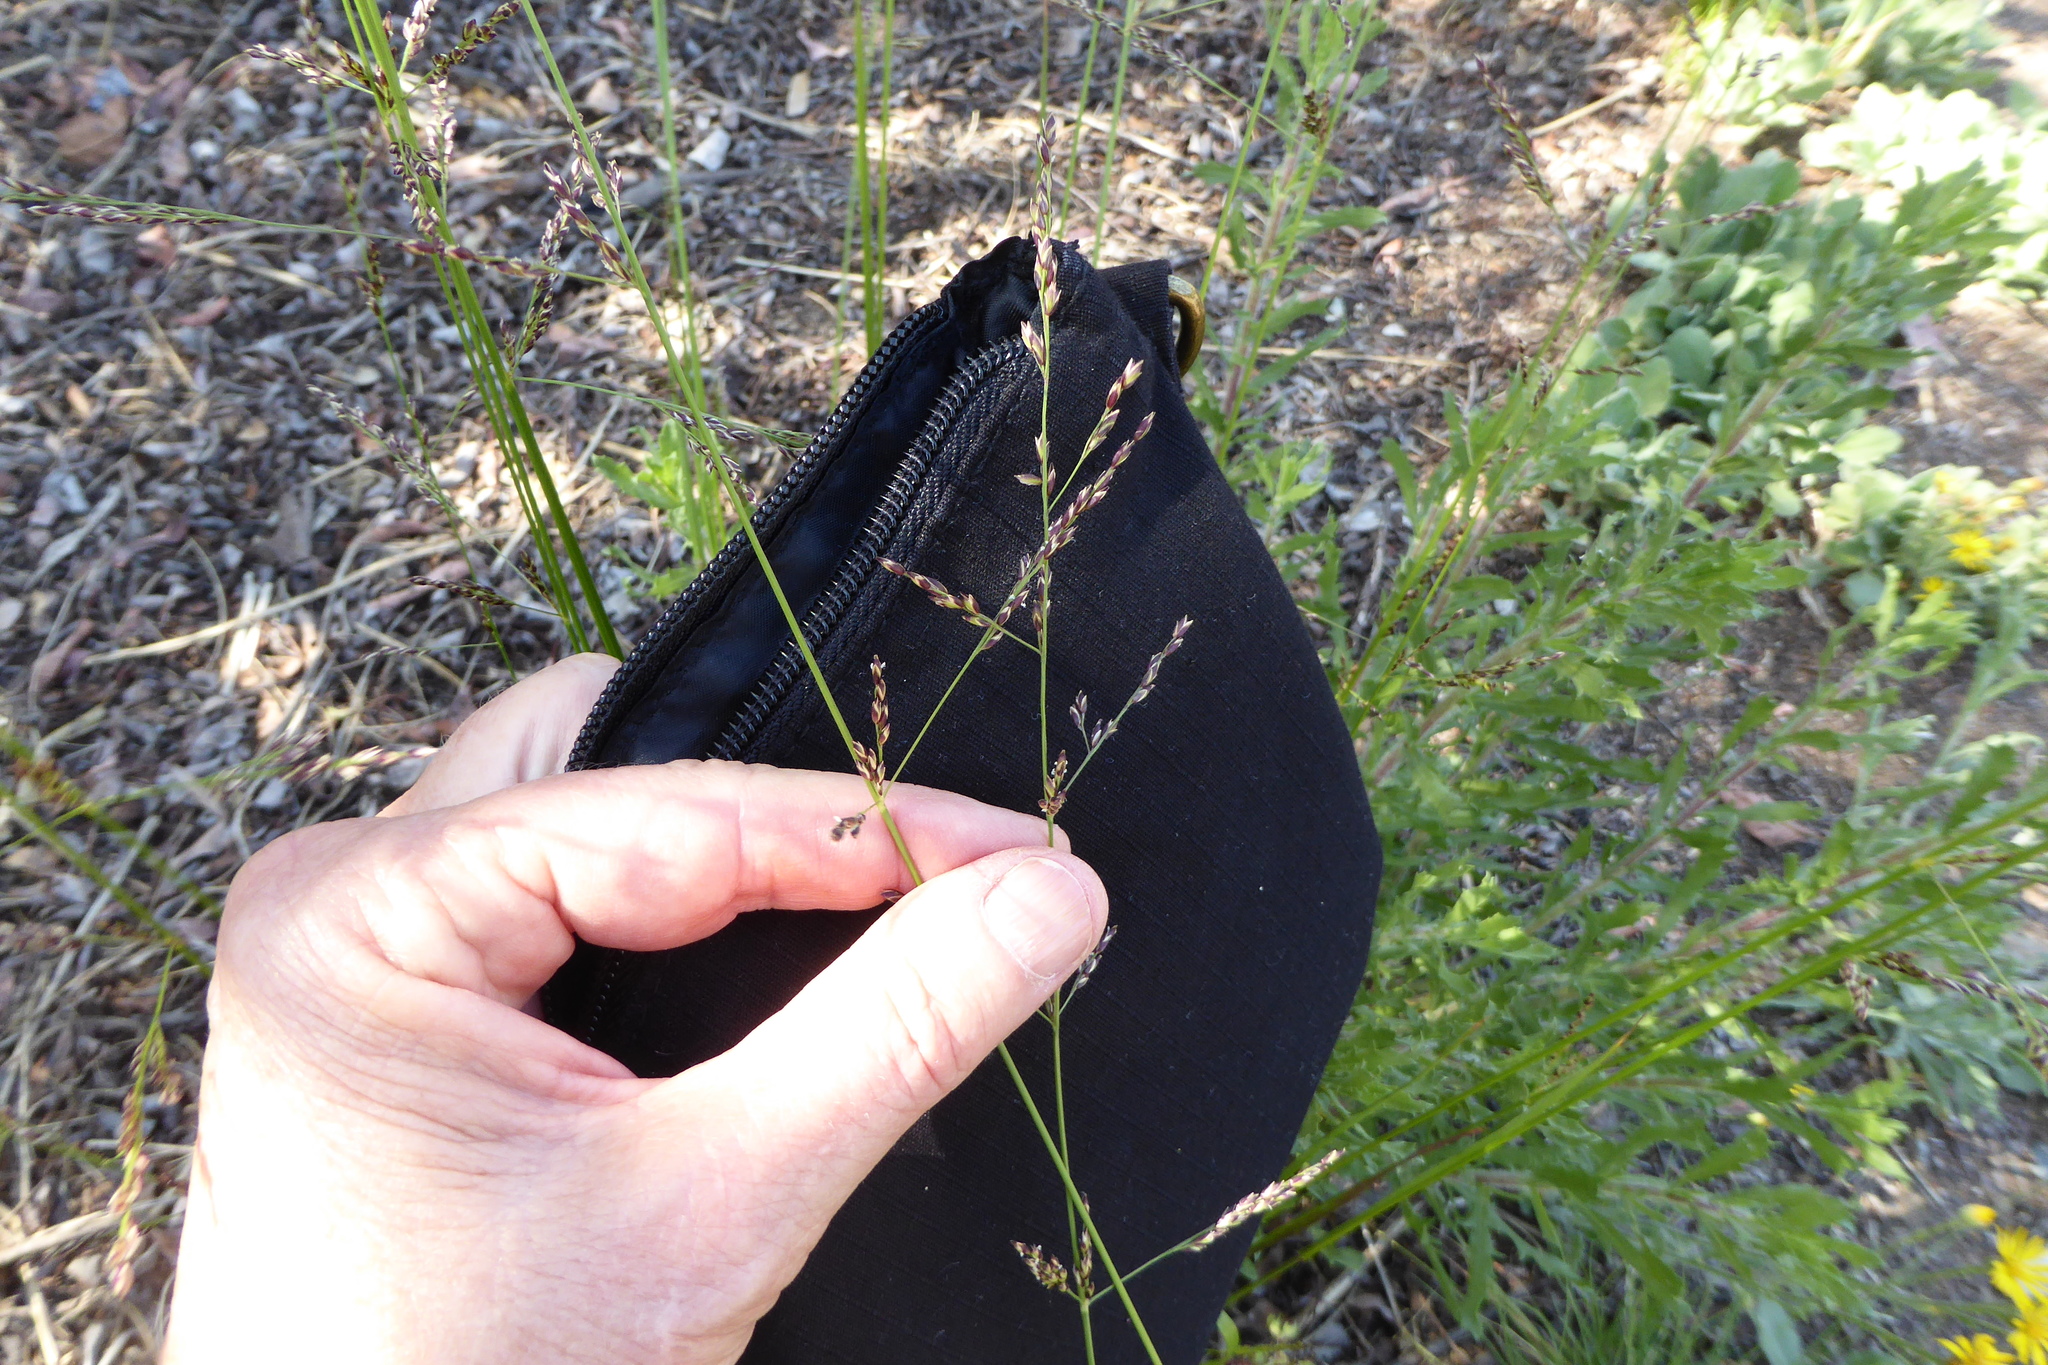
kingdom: Plantae
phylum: Tracheophyta
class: Liliopsida
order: Poales
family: Poaceae
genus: Melica
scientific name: Melica imperfecta
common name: California melic
